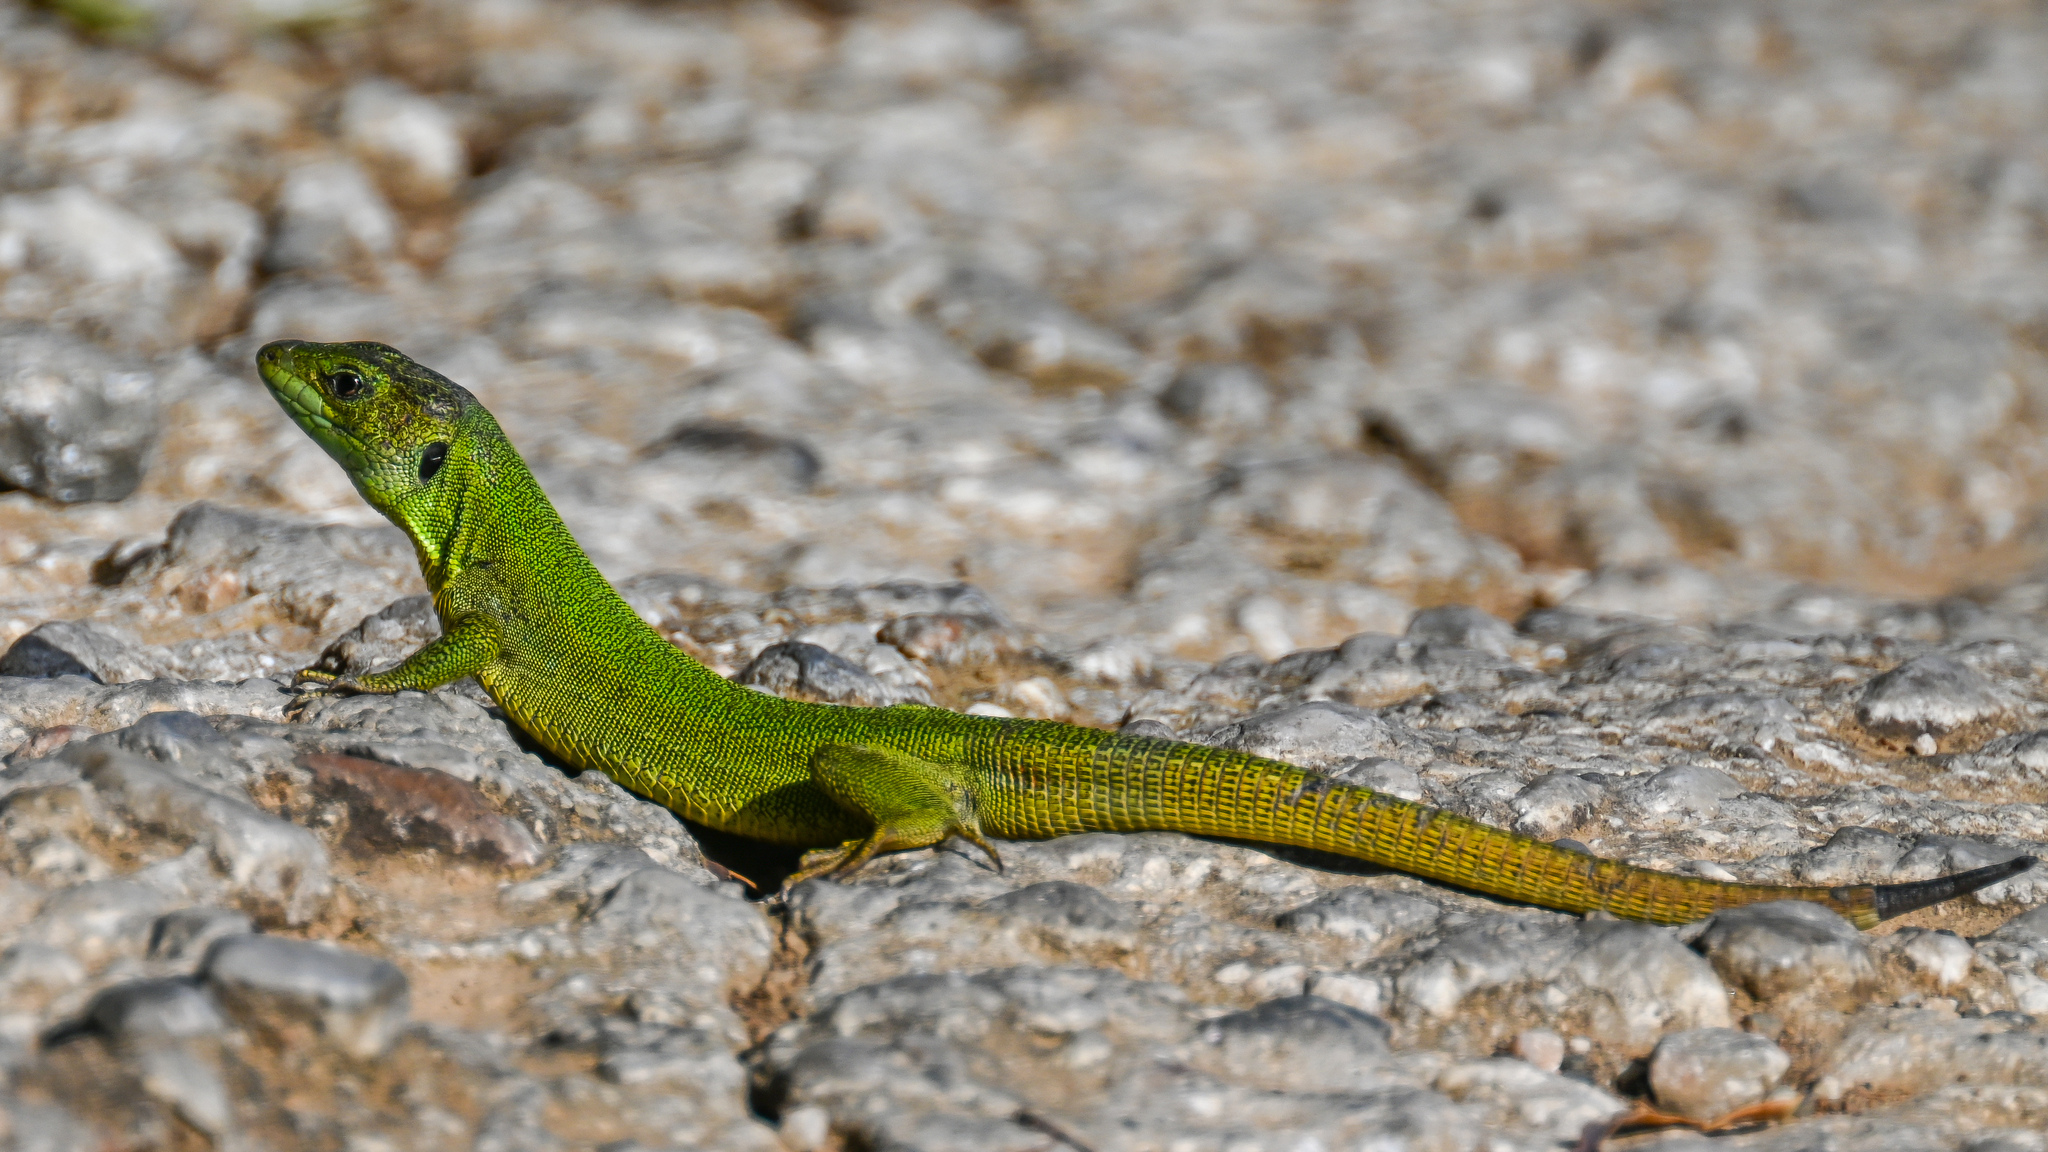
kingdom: Animalia
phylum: Chordata
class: Squamata
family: Lacertidae
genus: Lacerta
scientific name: Lacerta trilineata
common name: Balkan green lizard
